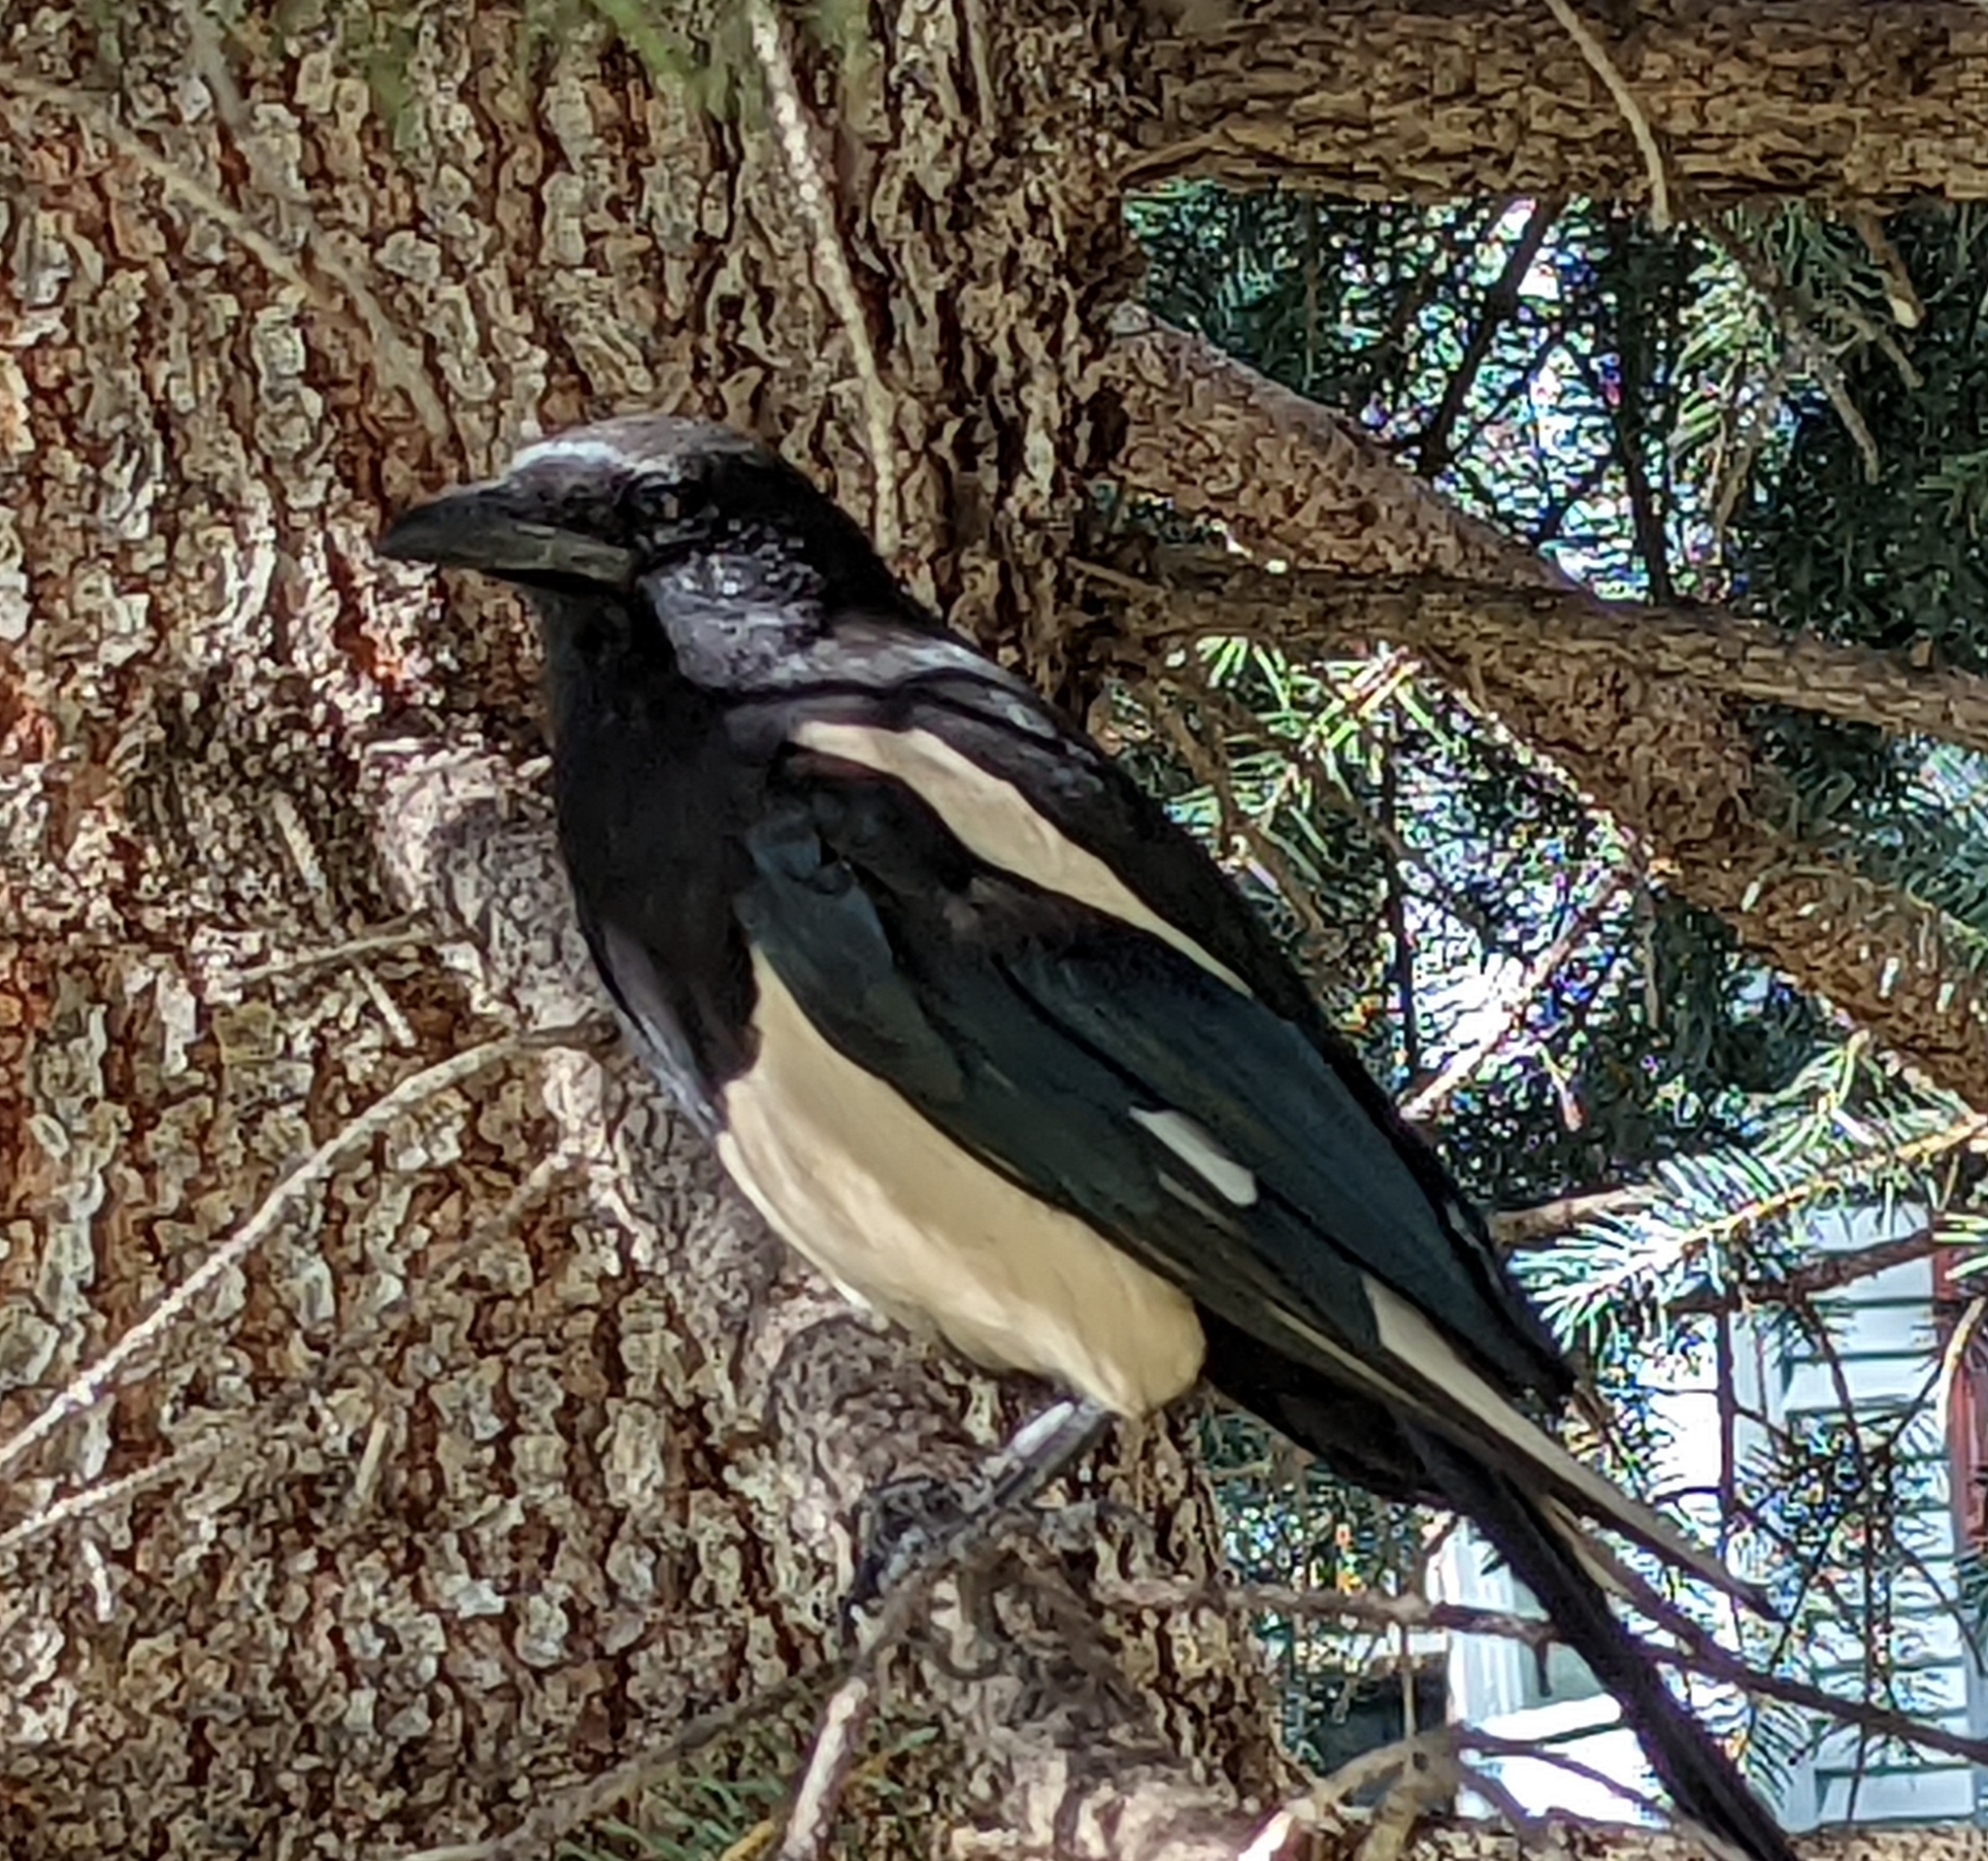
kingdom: Animalia
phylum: Chordata
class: Aves
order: Passeriformes
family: Corvidae
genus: Pica
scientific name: Pica hudsonia
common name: Black-billed magpie
